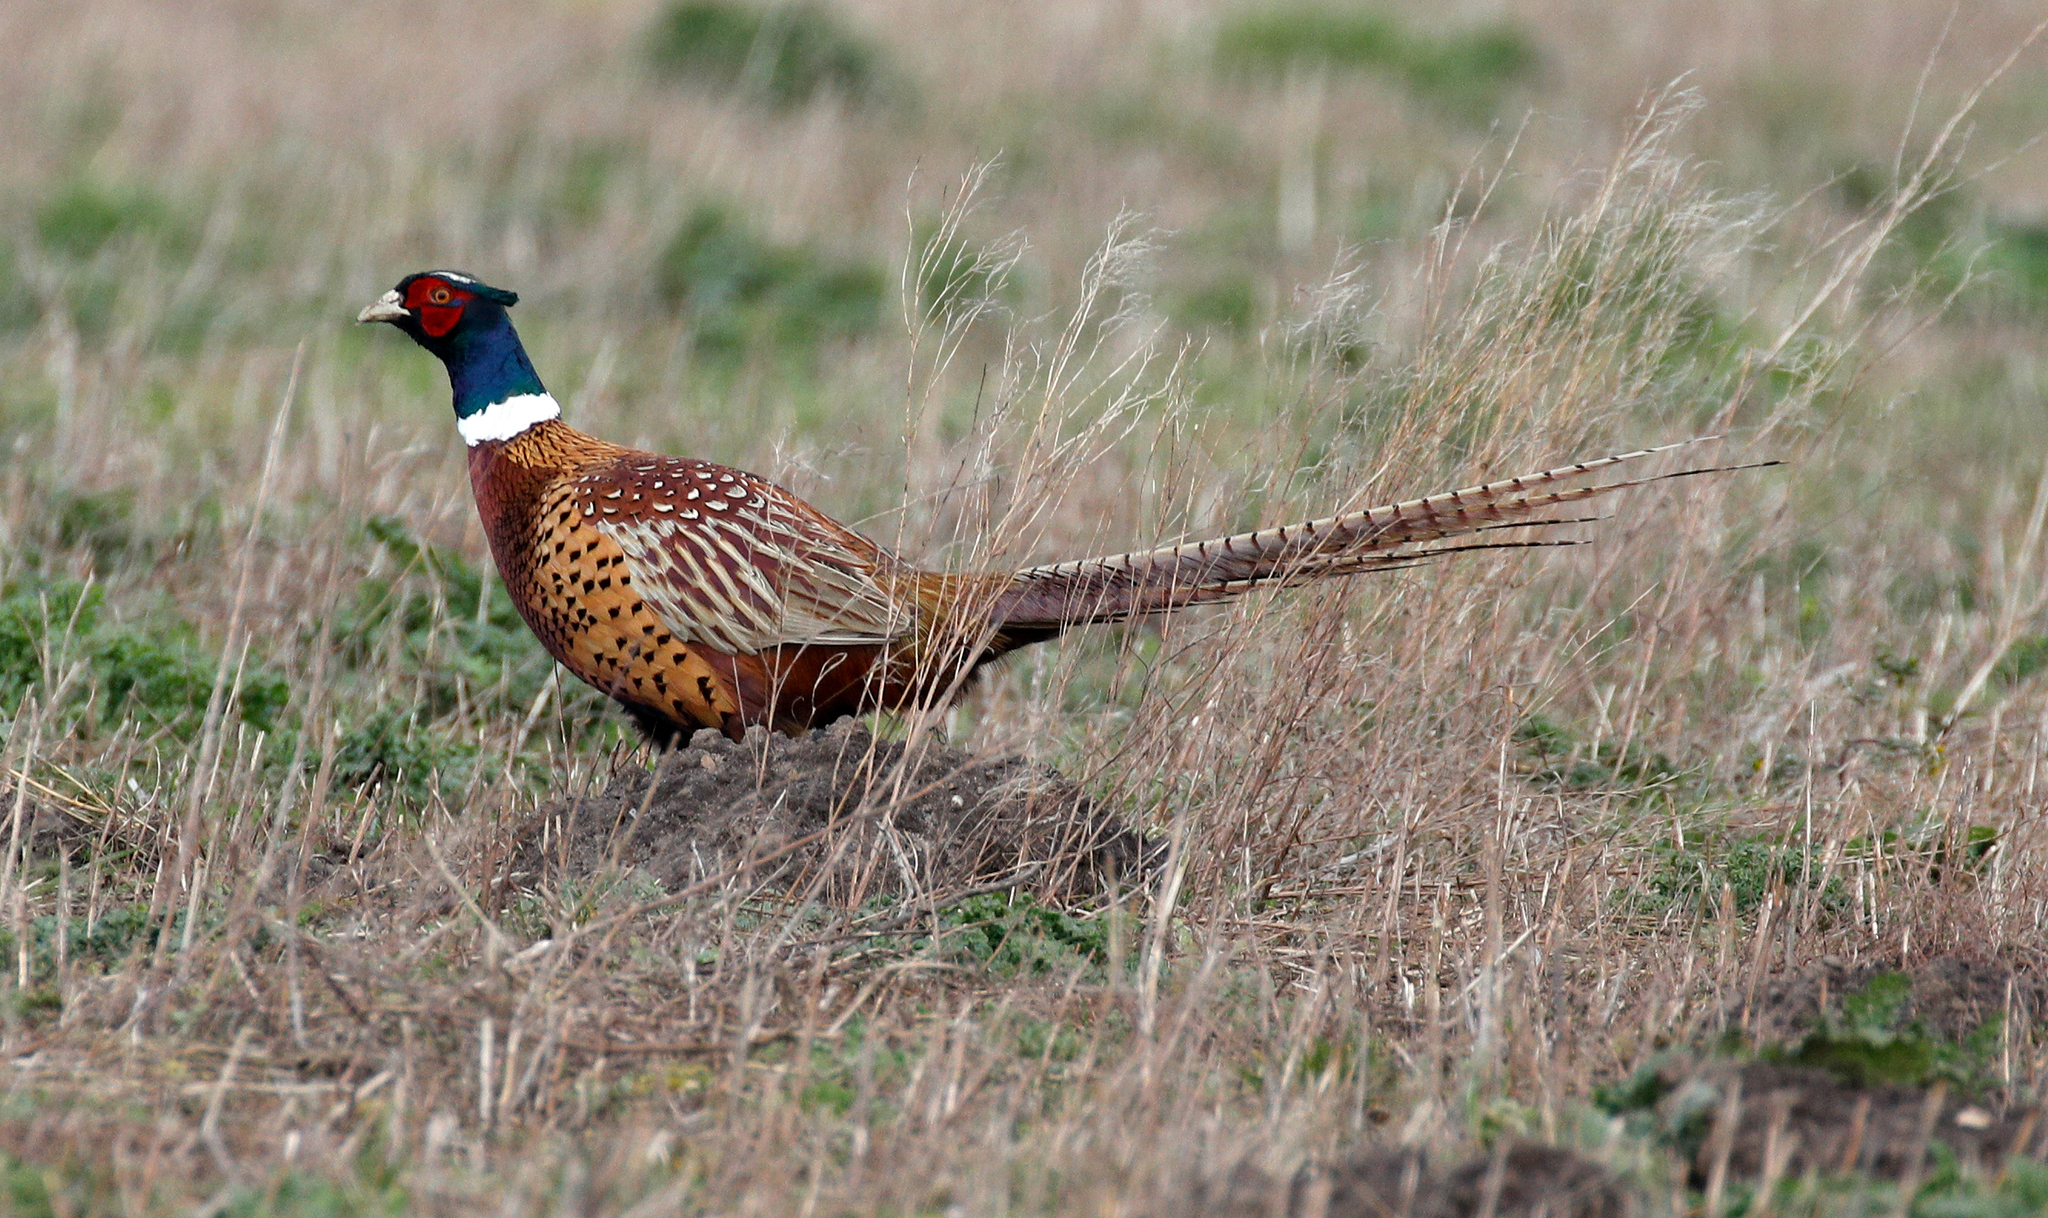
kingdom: Animalia
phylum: Chordata
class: Aves
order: Galliformes
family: Phasianidae
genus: Phasianus
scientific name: Phasianus colchicus
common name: Common pheasant
